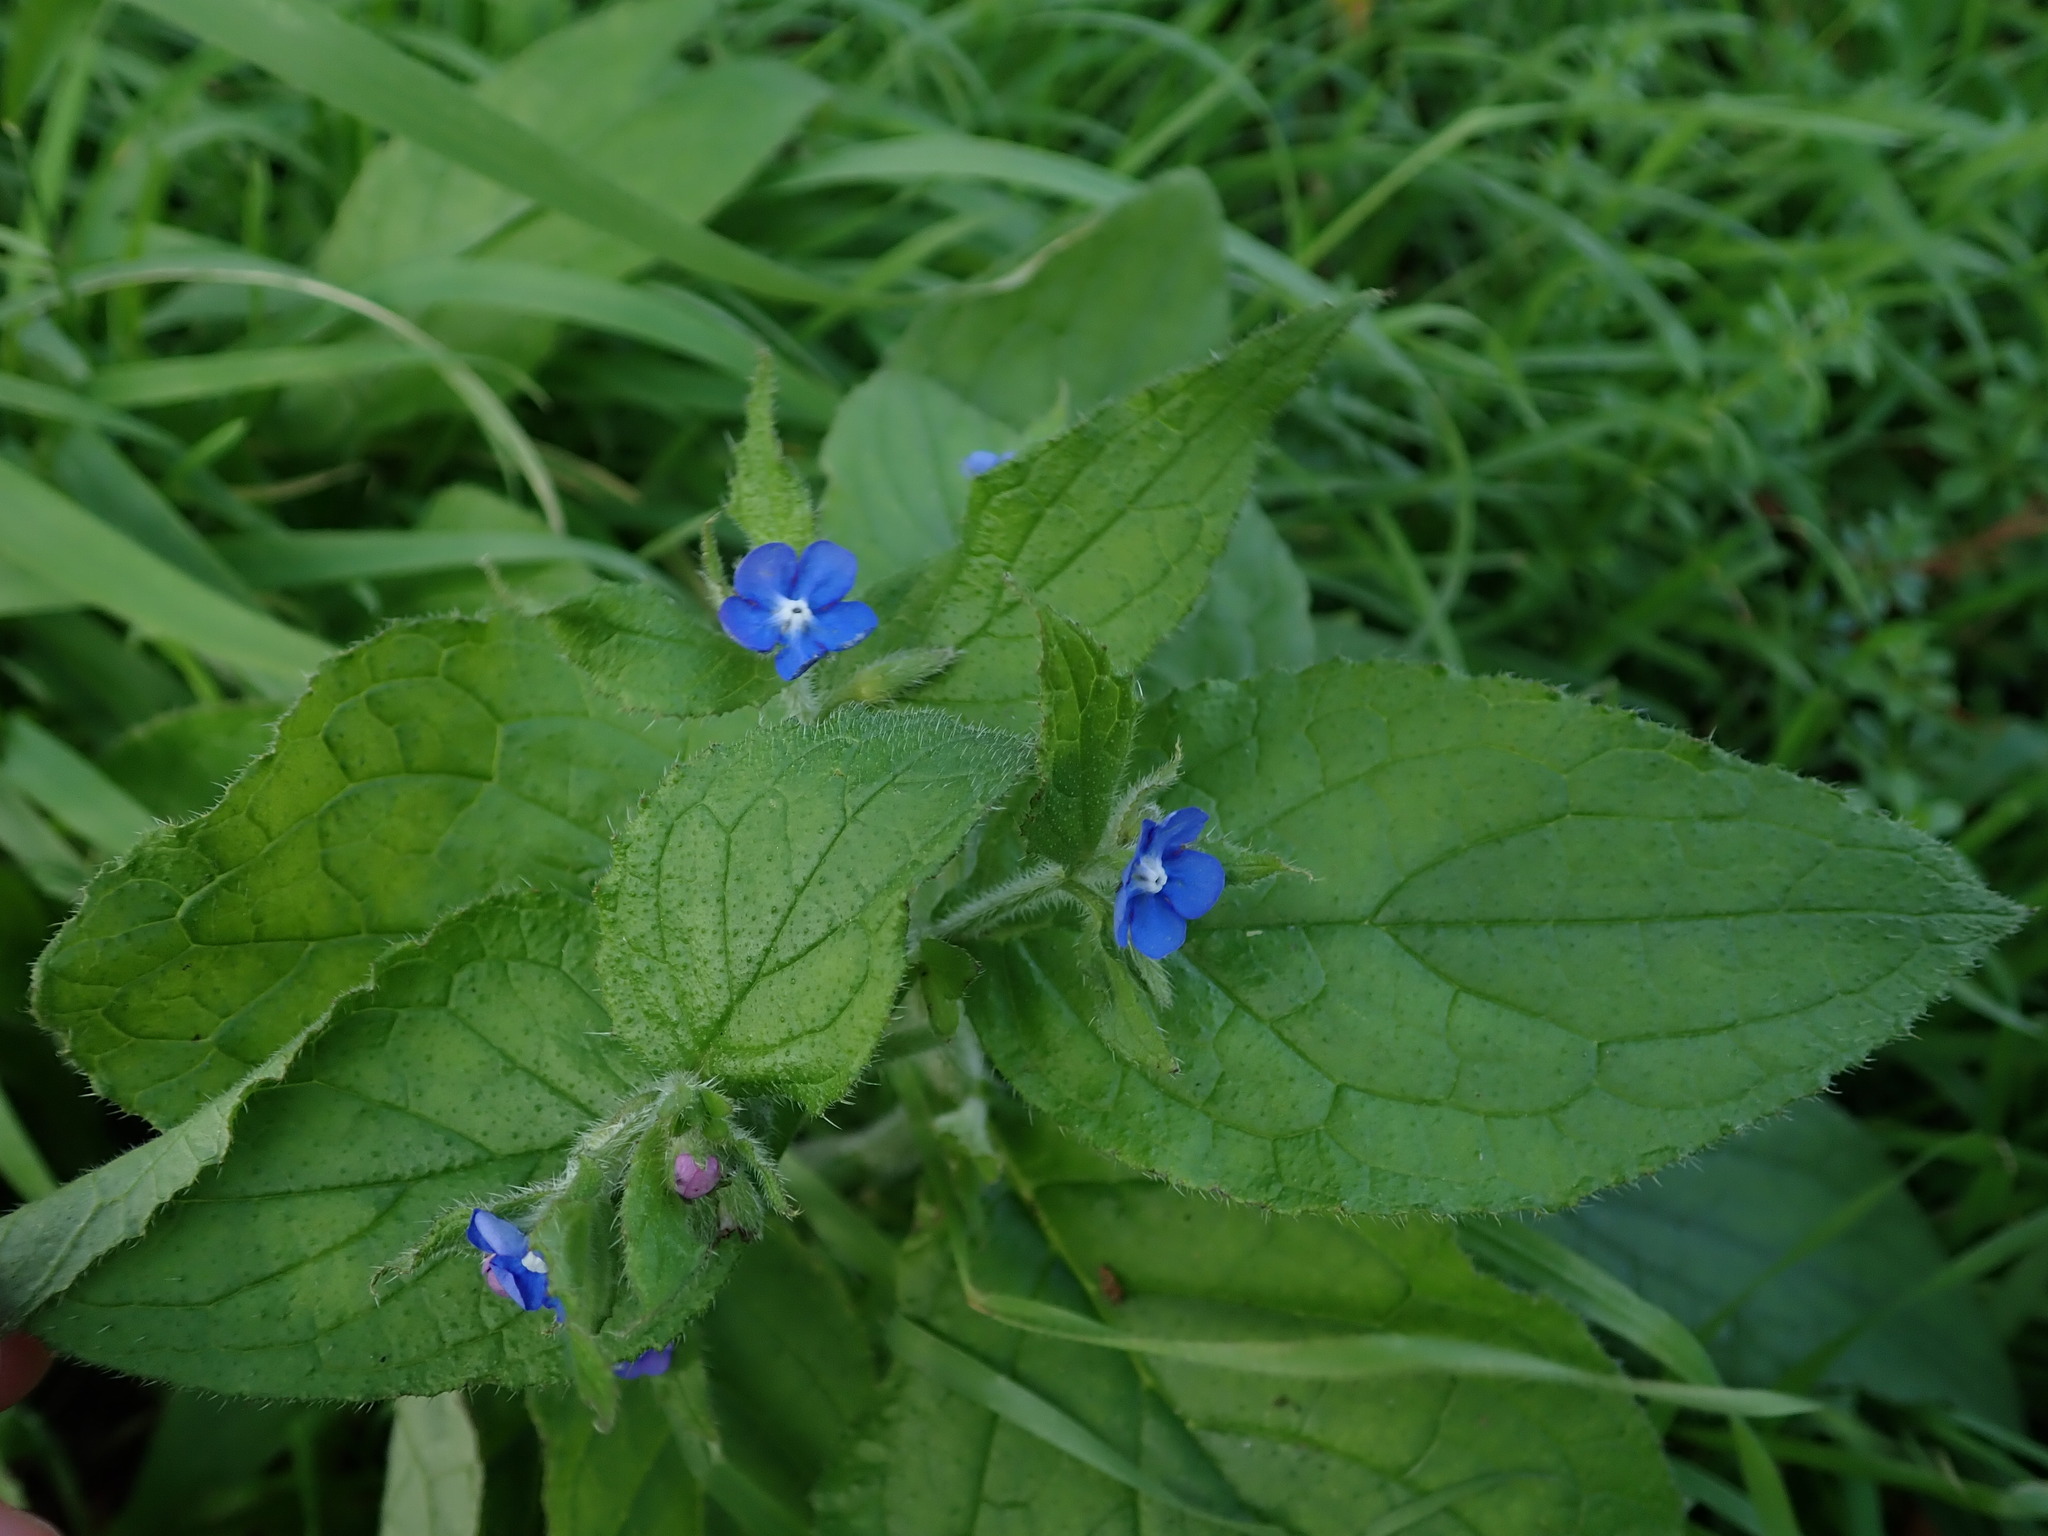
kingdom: Plantae
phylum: Tracheophyta
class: Magnoliopsida
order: Boraginales
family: Boraginaceae
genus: Pentaglottis
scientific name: Pentaglottis sempervirens
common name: Green alkanet
